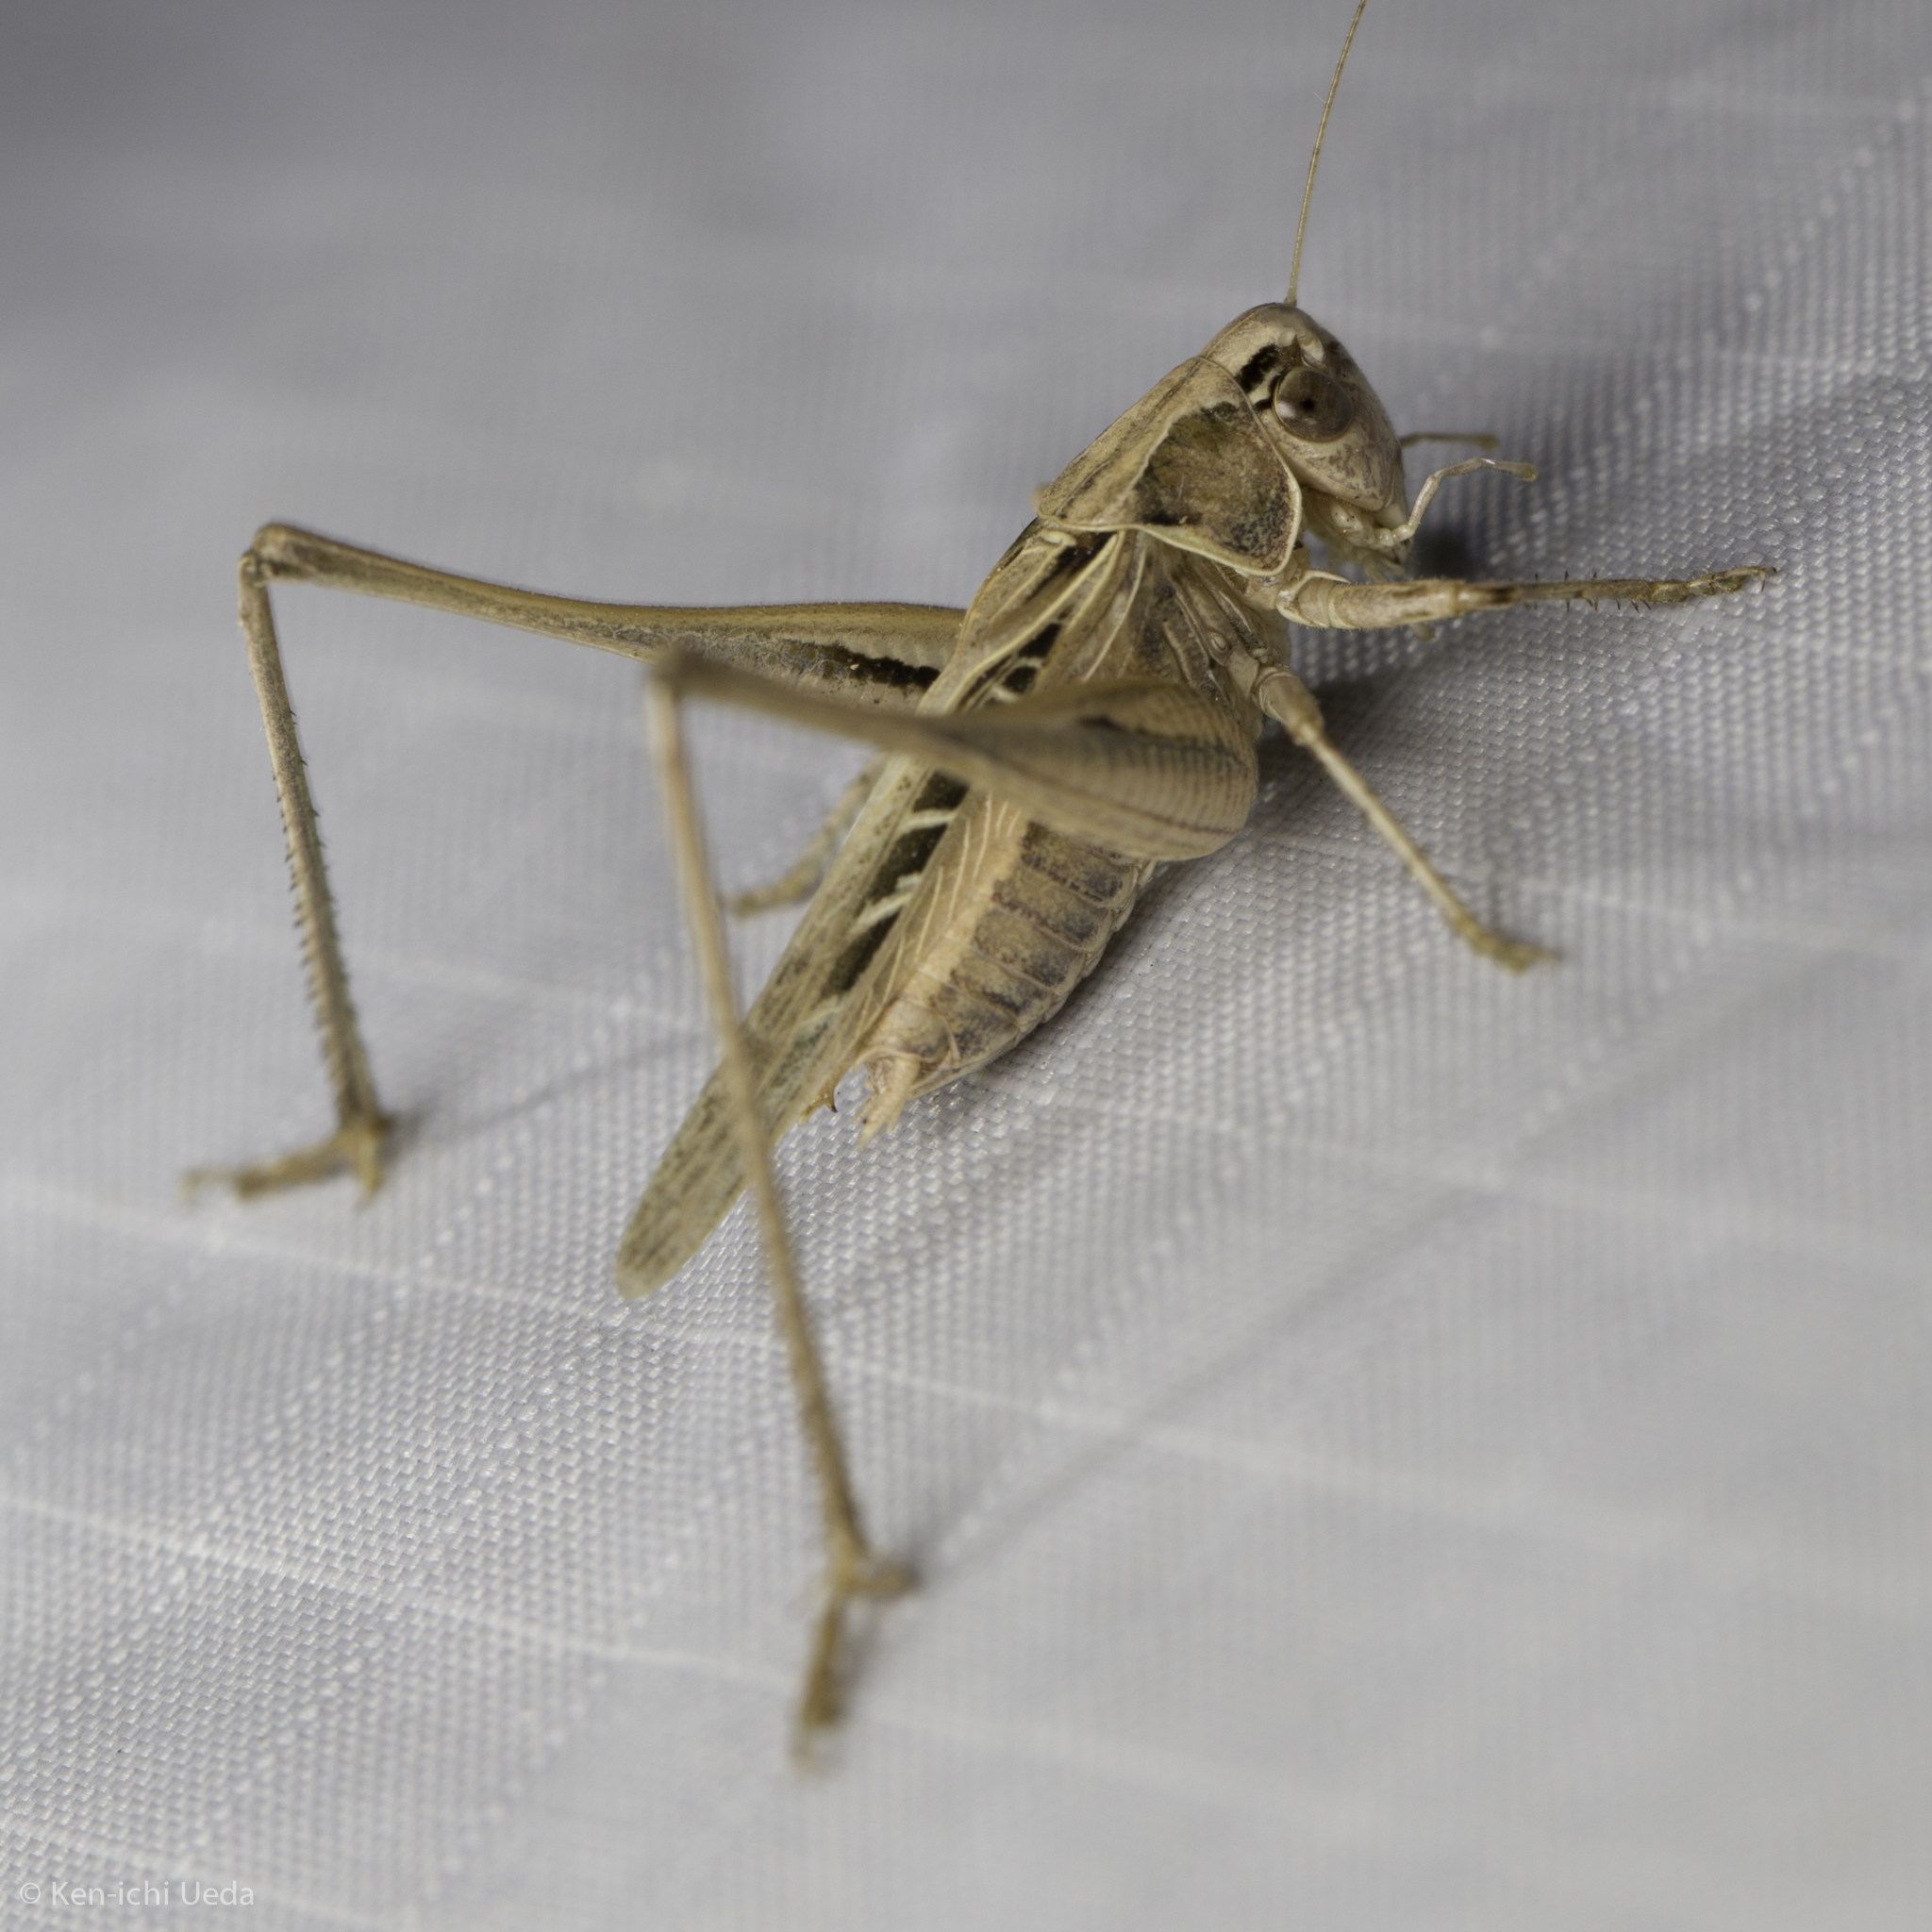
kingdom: Animalia
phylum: Arthropoda
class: Insecta
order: Orthoptera
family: Tettigoniidae
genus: Tessellana
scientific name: Tessellana tessellata
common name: Grasshopper
